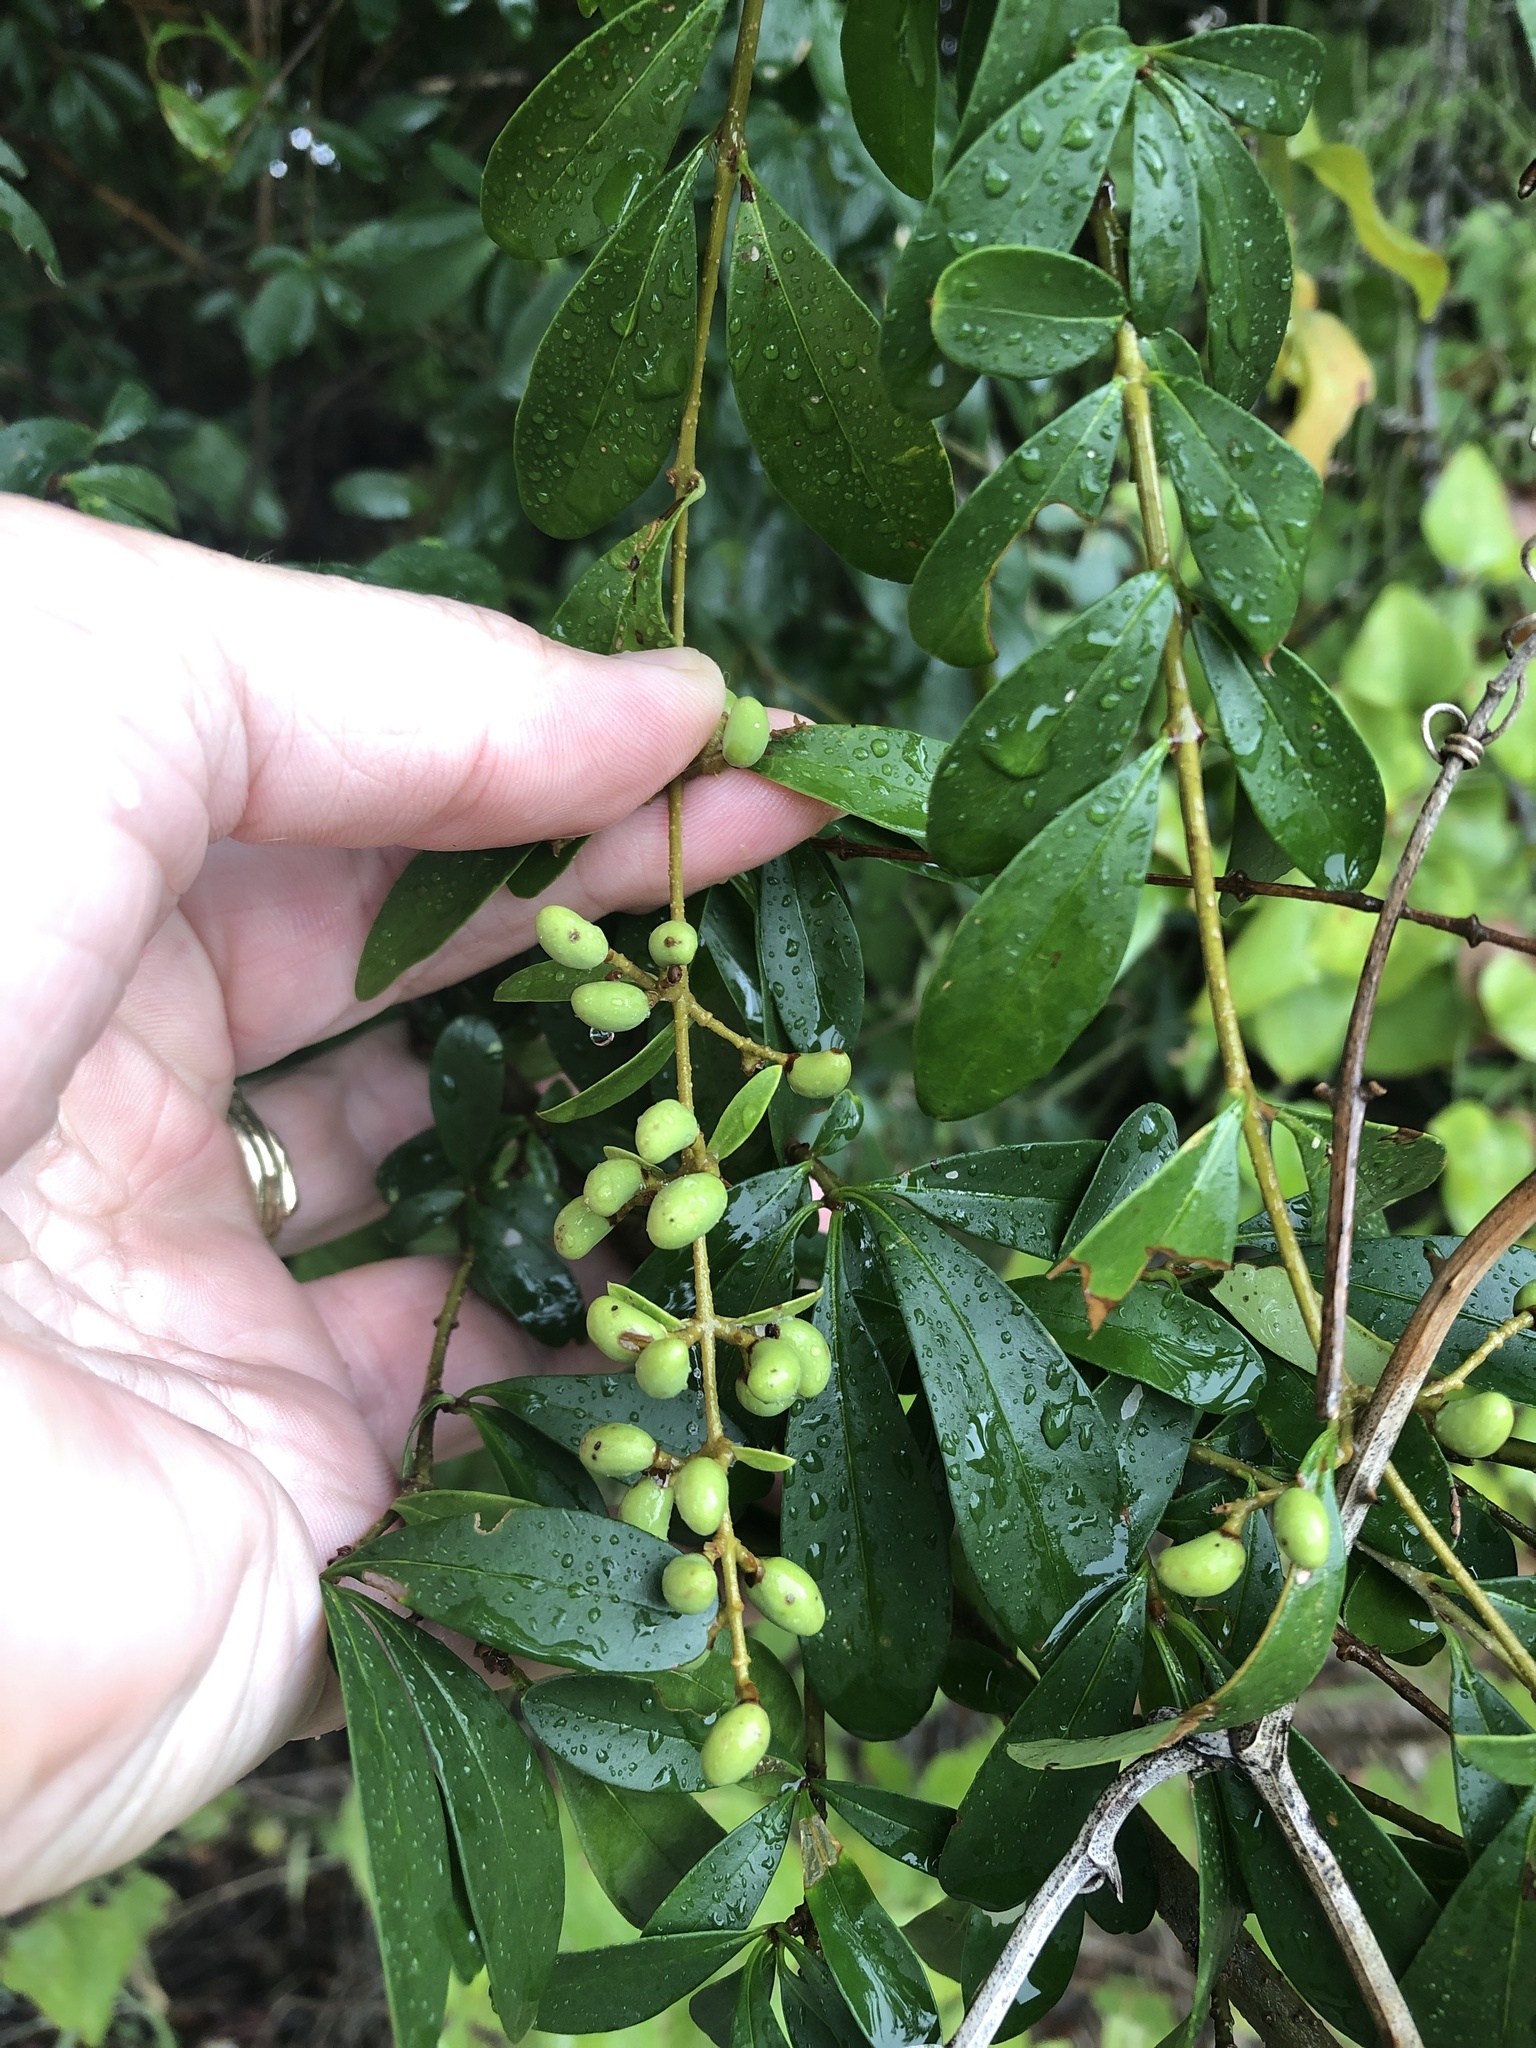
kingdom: Plantae
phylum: Tracheophyta
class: Magnoliopsida
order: Lamiales
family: Oleaceae
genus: Ligustrum
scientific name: Ligustrum quihoui
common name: Waxyleaf privet
